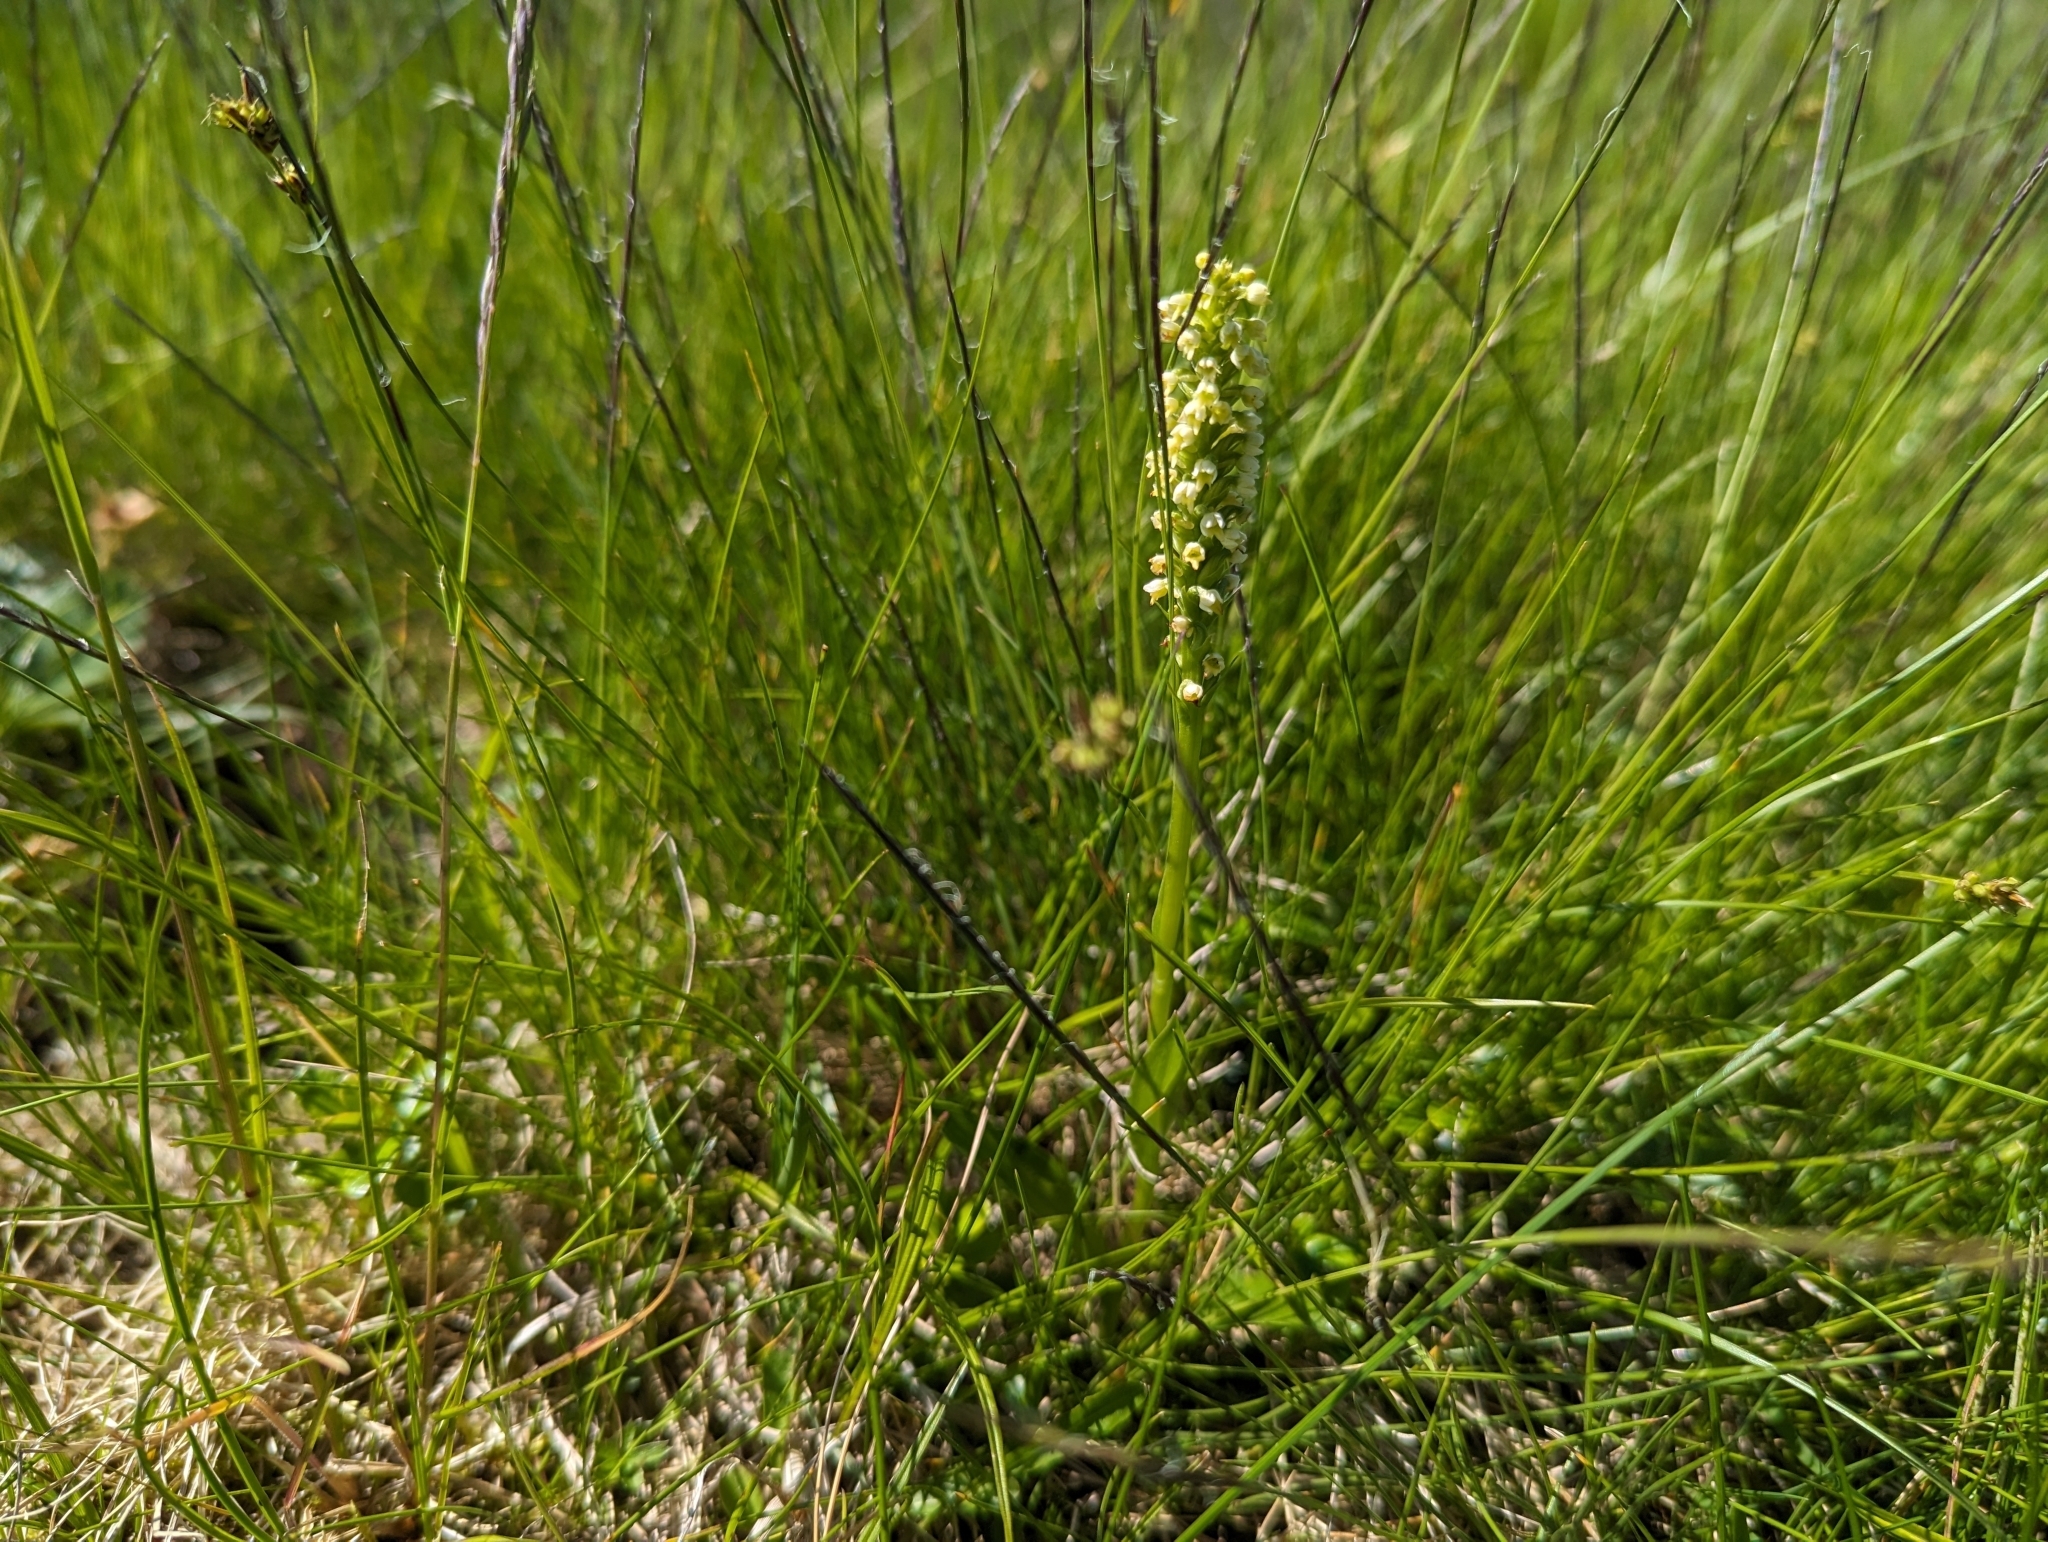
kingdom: Plantae
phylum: Tracheophyta
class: Liliopsida
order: Asparagales
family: Orchidaceae
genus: Pseudorchis
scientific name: Pseudorchis albida
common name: Small-white orchid
